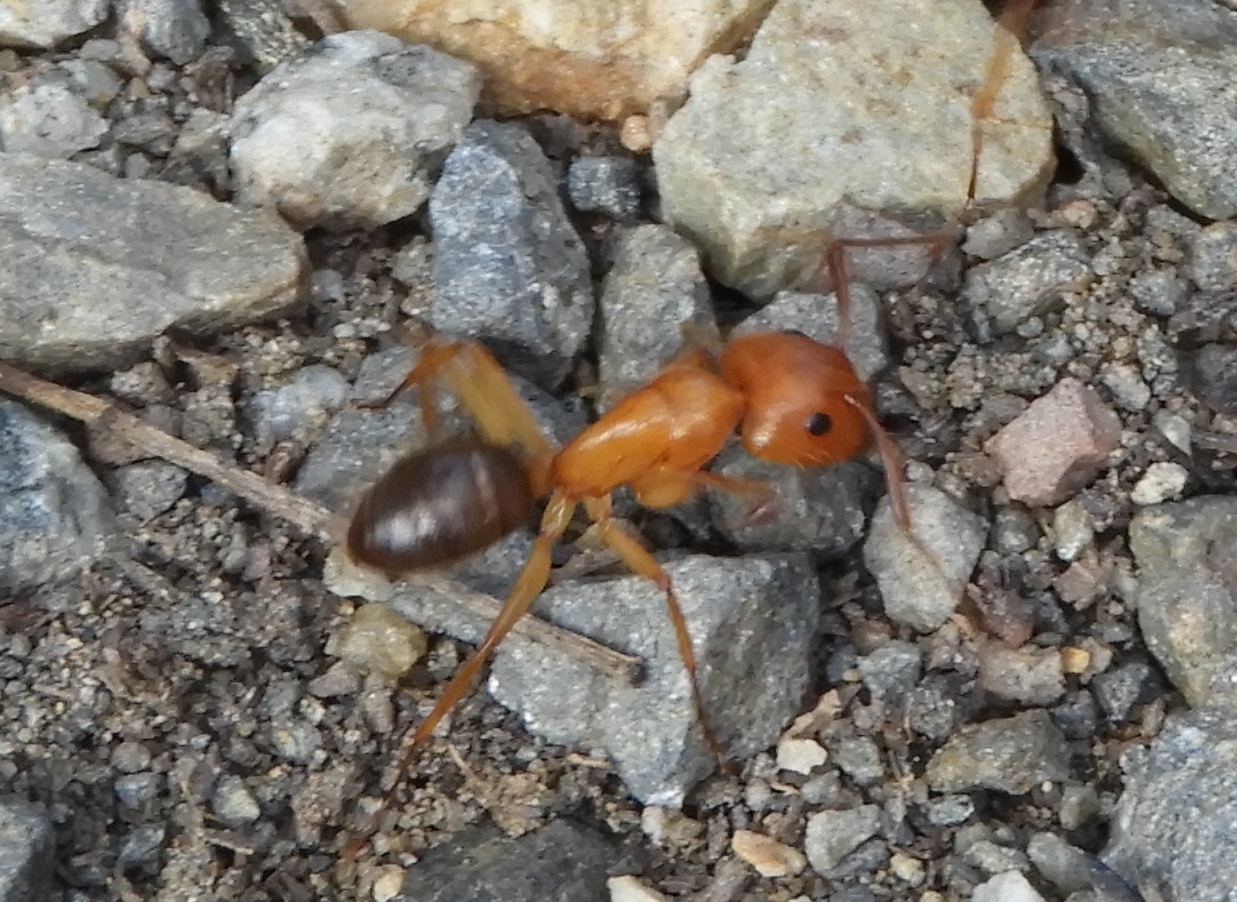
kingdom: Animalia
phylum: Arthropoda
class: Insecta
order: Hymenoptera
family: Formicidae
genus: Camponotus
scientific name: Camponotus atriceps
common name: Florida carpenter ant
